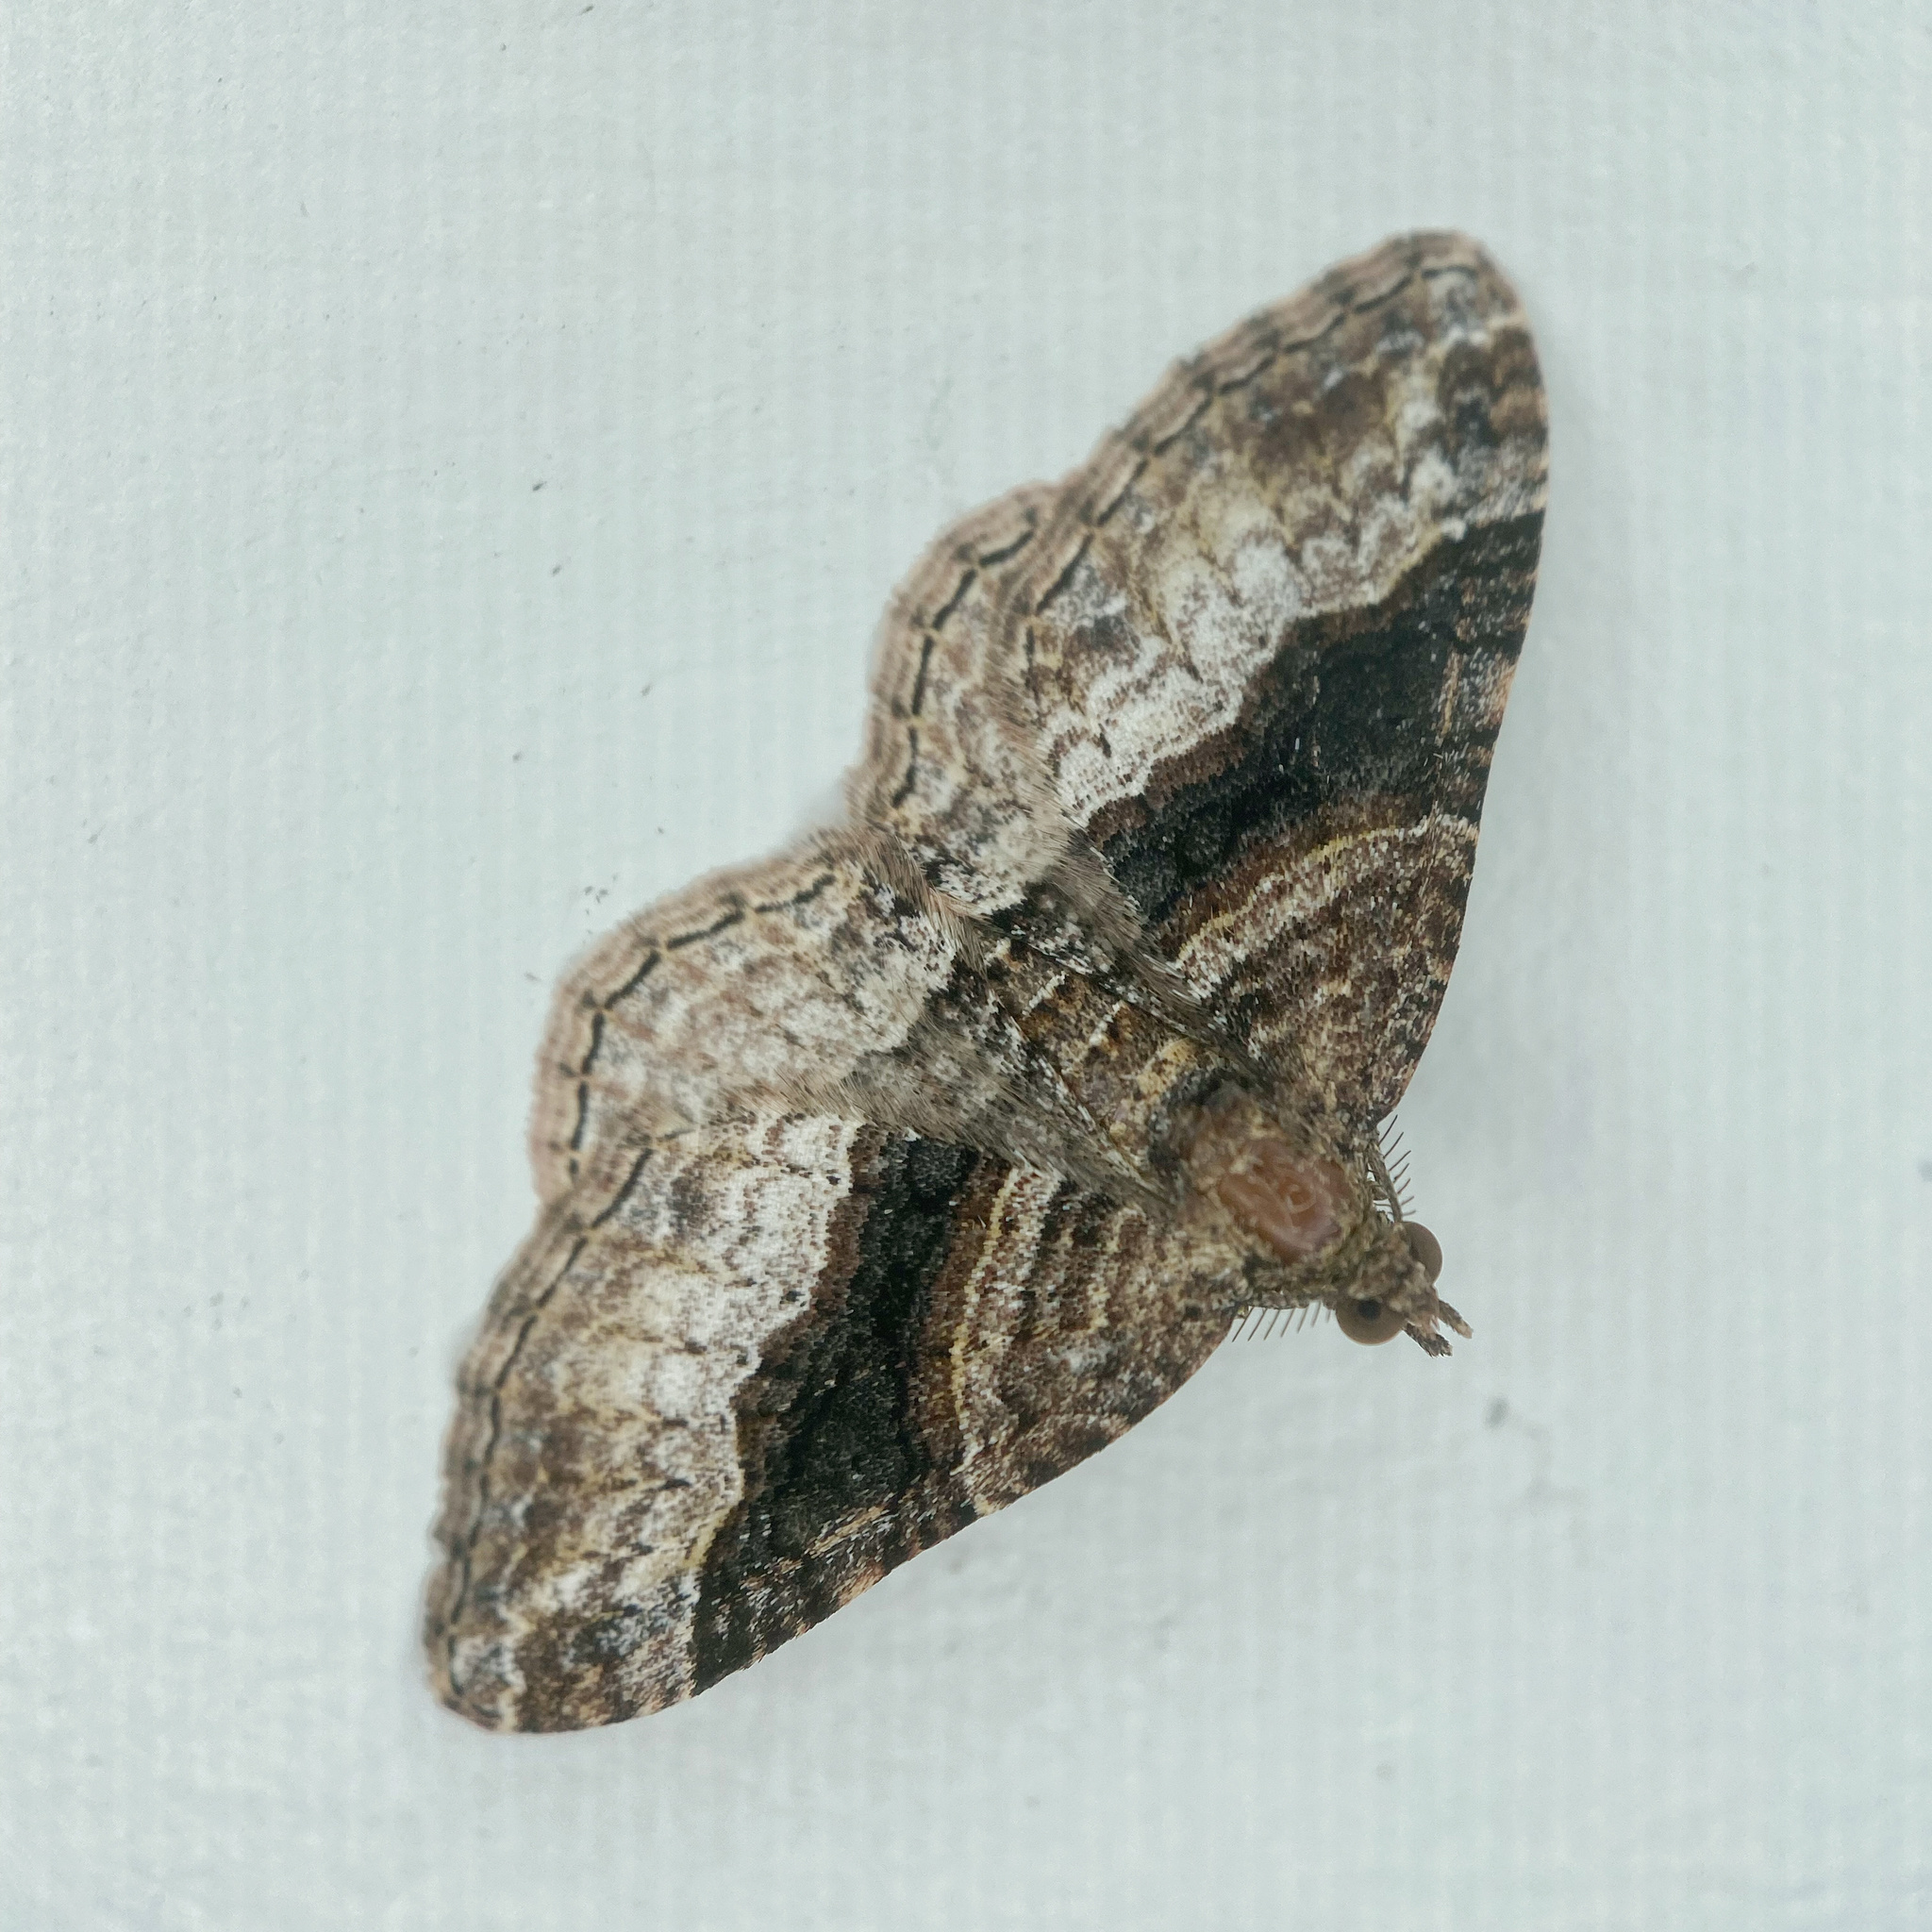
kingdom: Animalia
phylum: Arthropoda
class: Insecta
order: Lepidoptera
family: Geometridae
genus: Epyaxa
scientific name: Epyaxa lucidata
